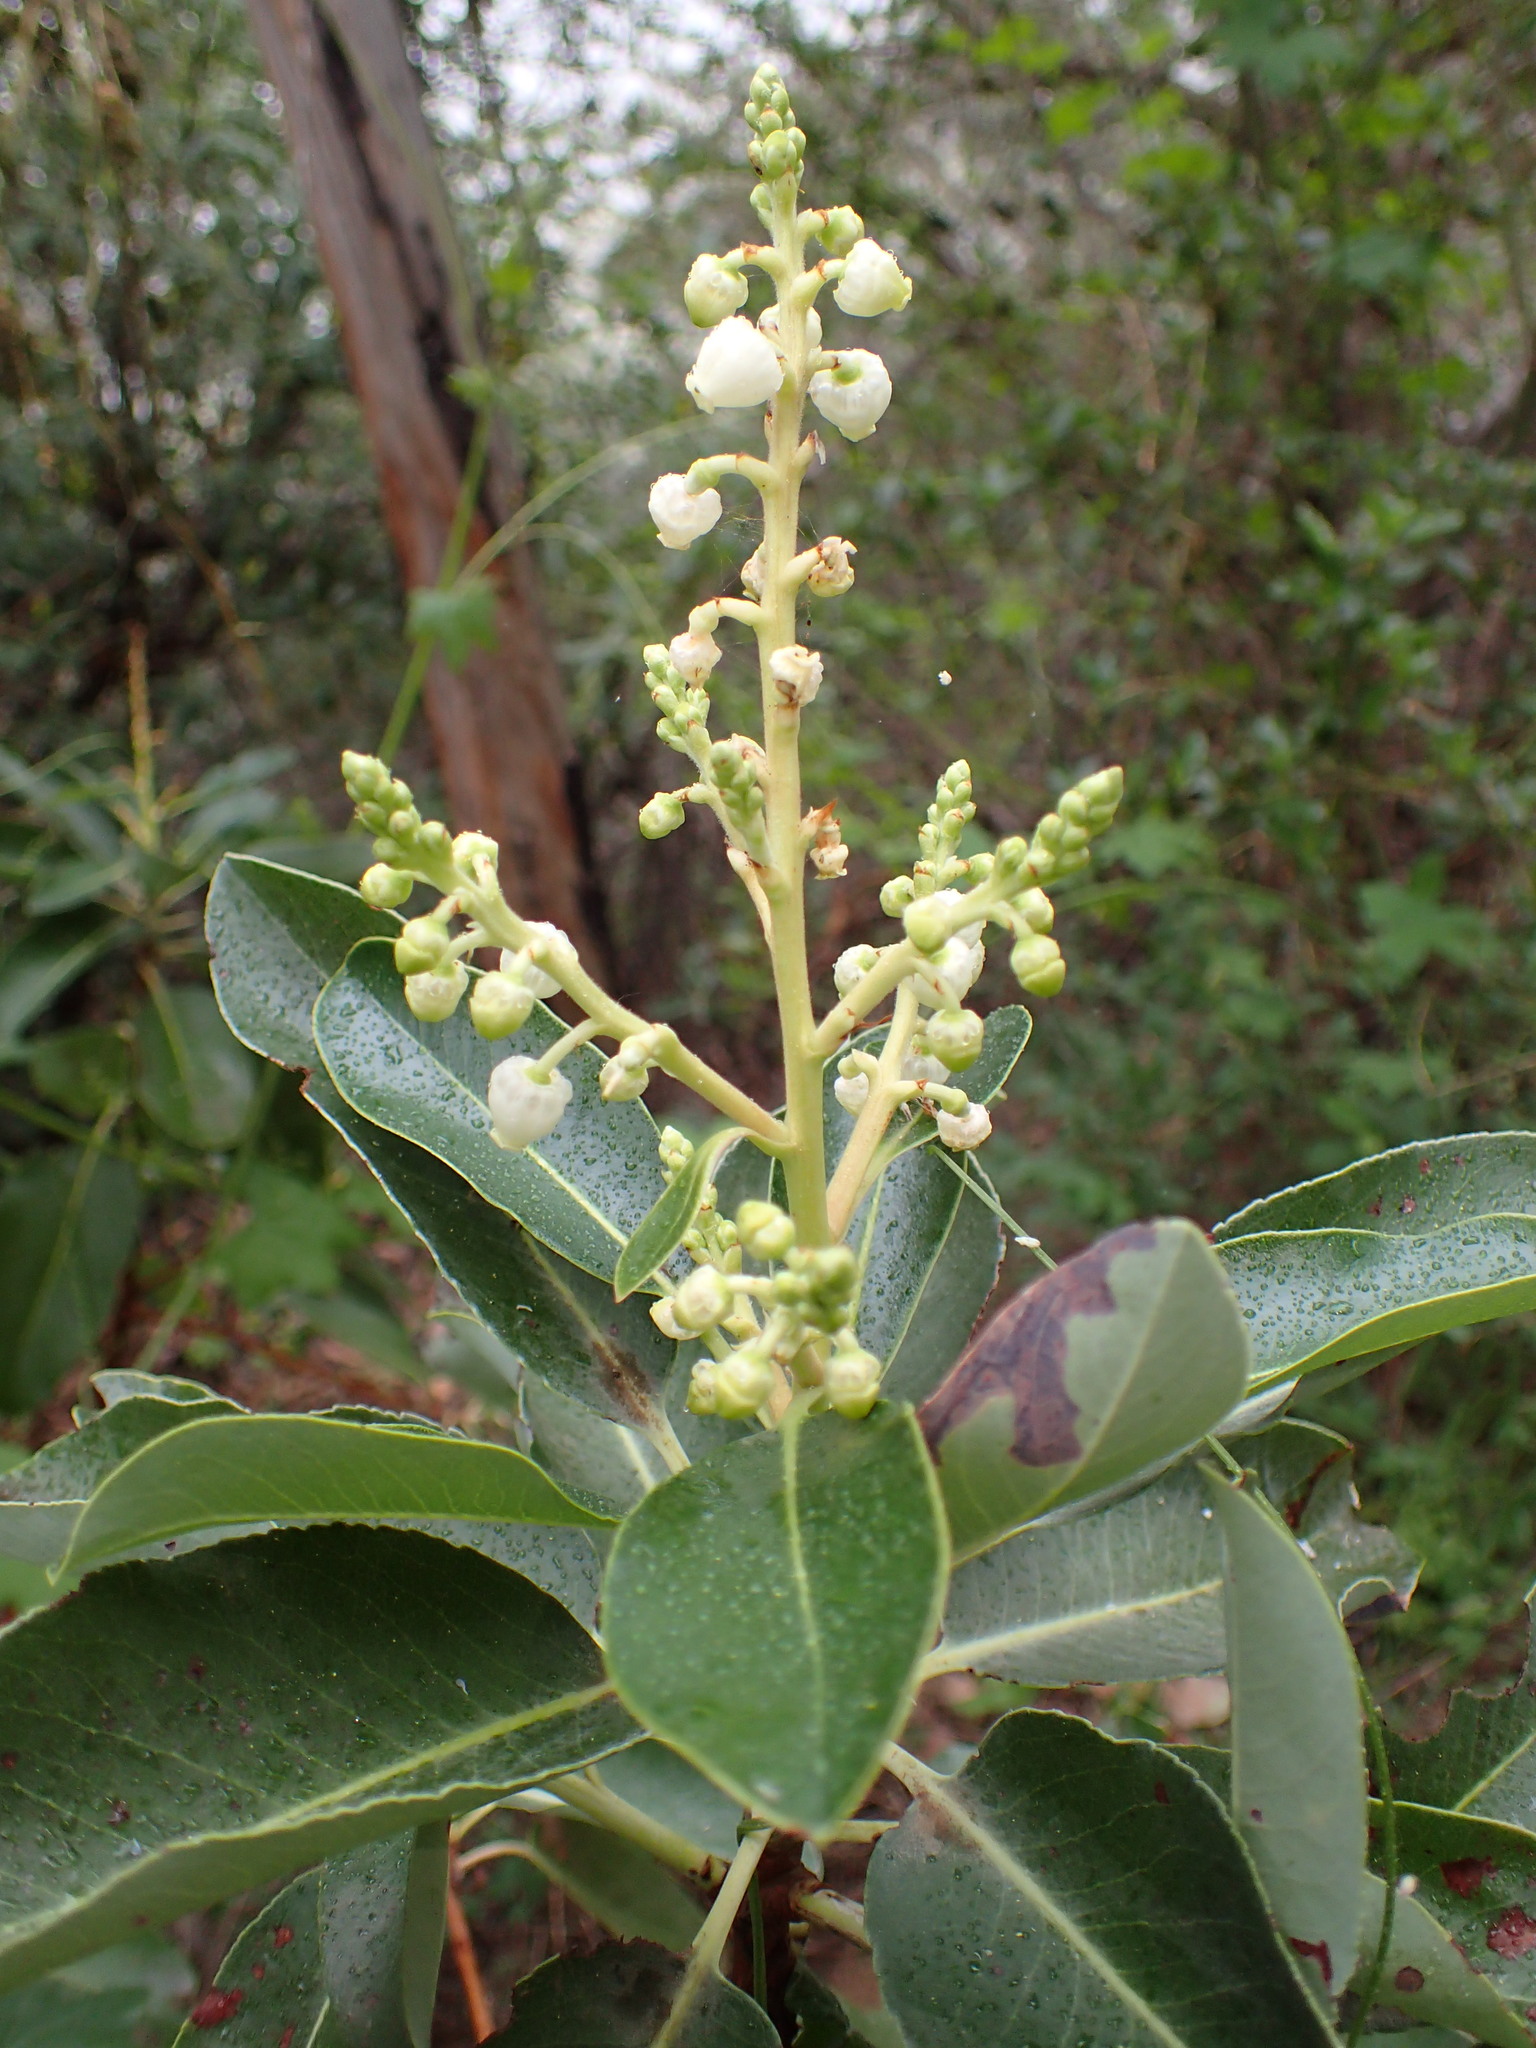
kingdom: Plantae
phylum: Tracheophyta
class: Magnoliopsida
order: Ericales
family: Ericaceae
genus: Arbutus
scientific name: Arbutus menziesii
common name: Pacific madrone
